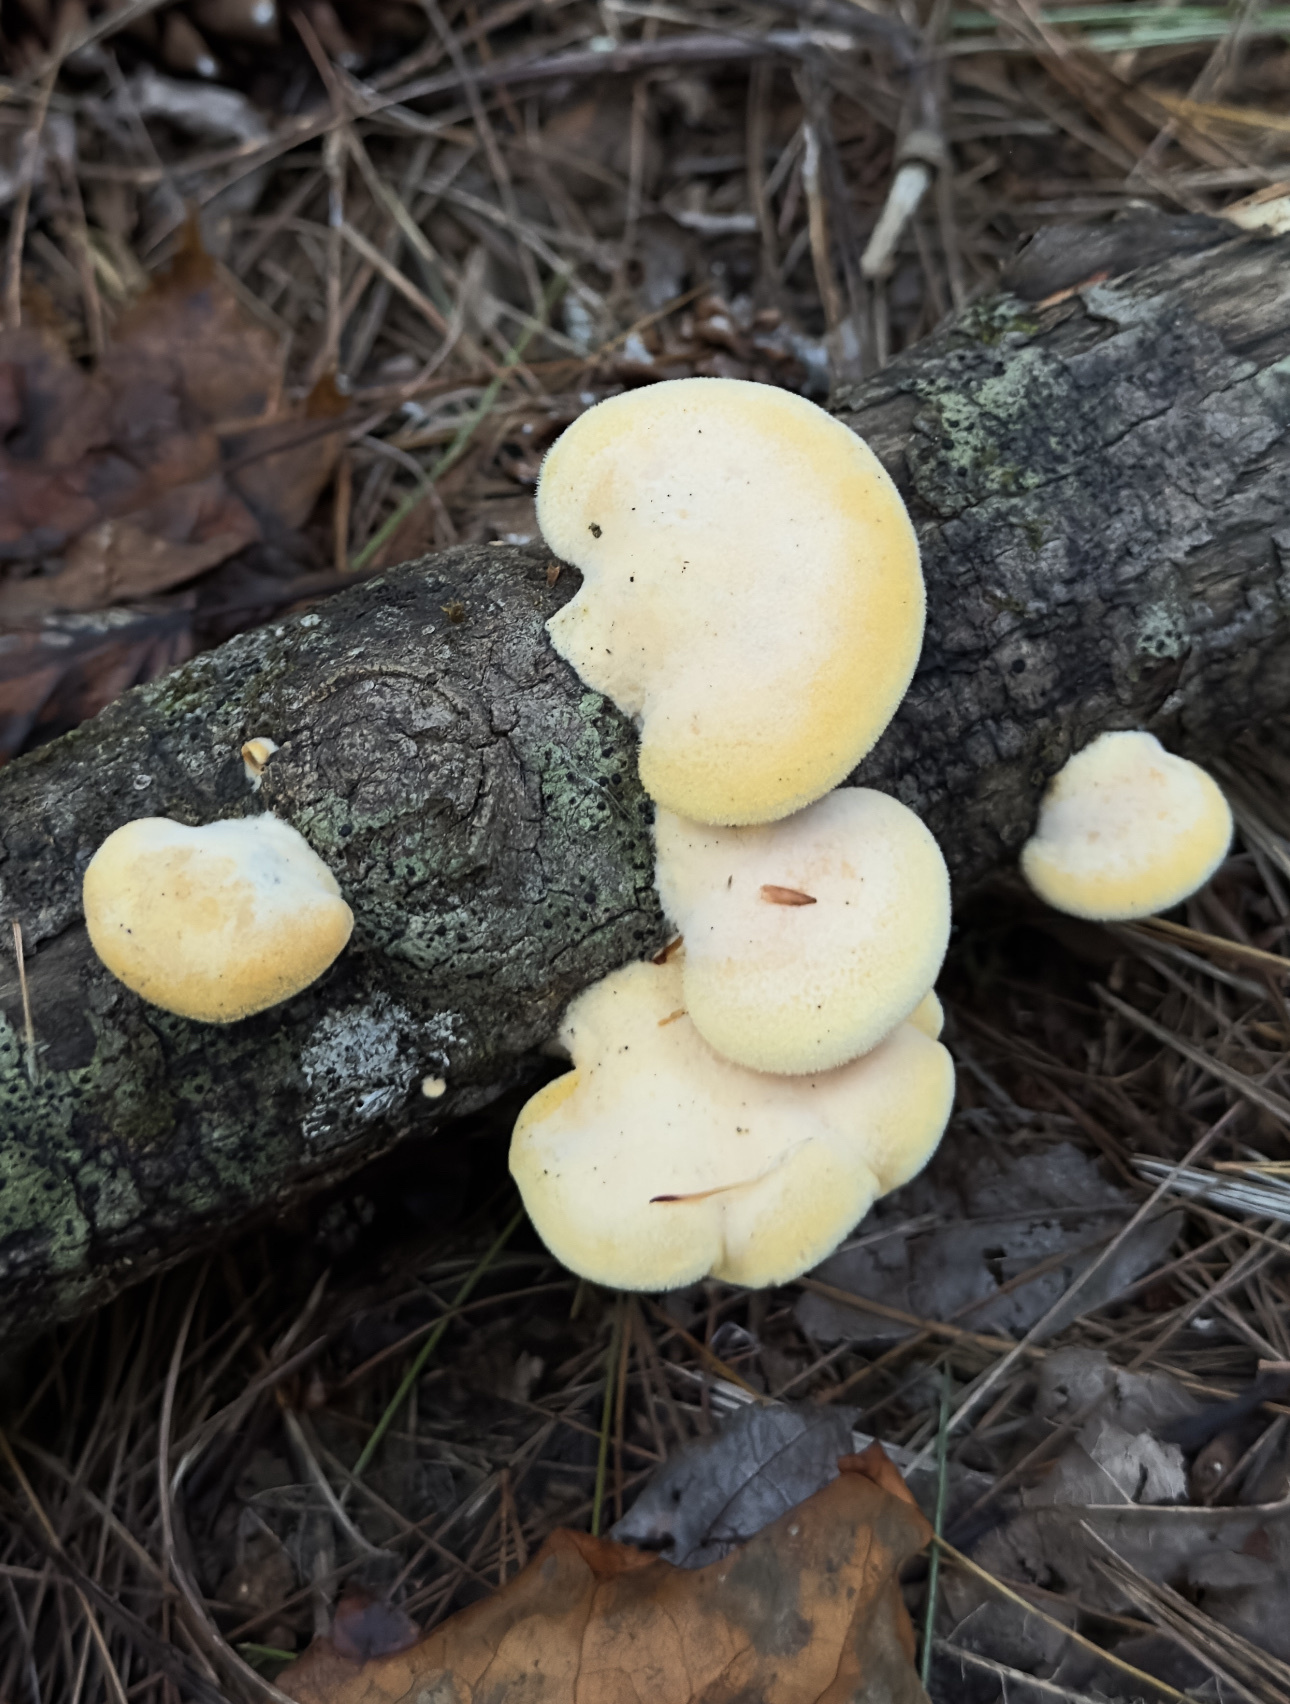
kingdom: Fungi
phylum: Basidiomycota
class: Agaricomycetes
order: Agaricales
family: Phyllotopsidaceae
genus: Phyllotopsis
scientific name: Phyllotopsis nidulans
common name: Orange mock oyster
